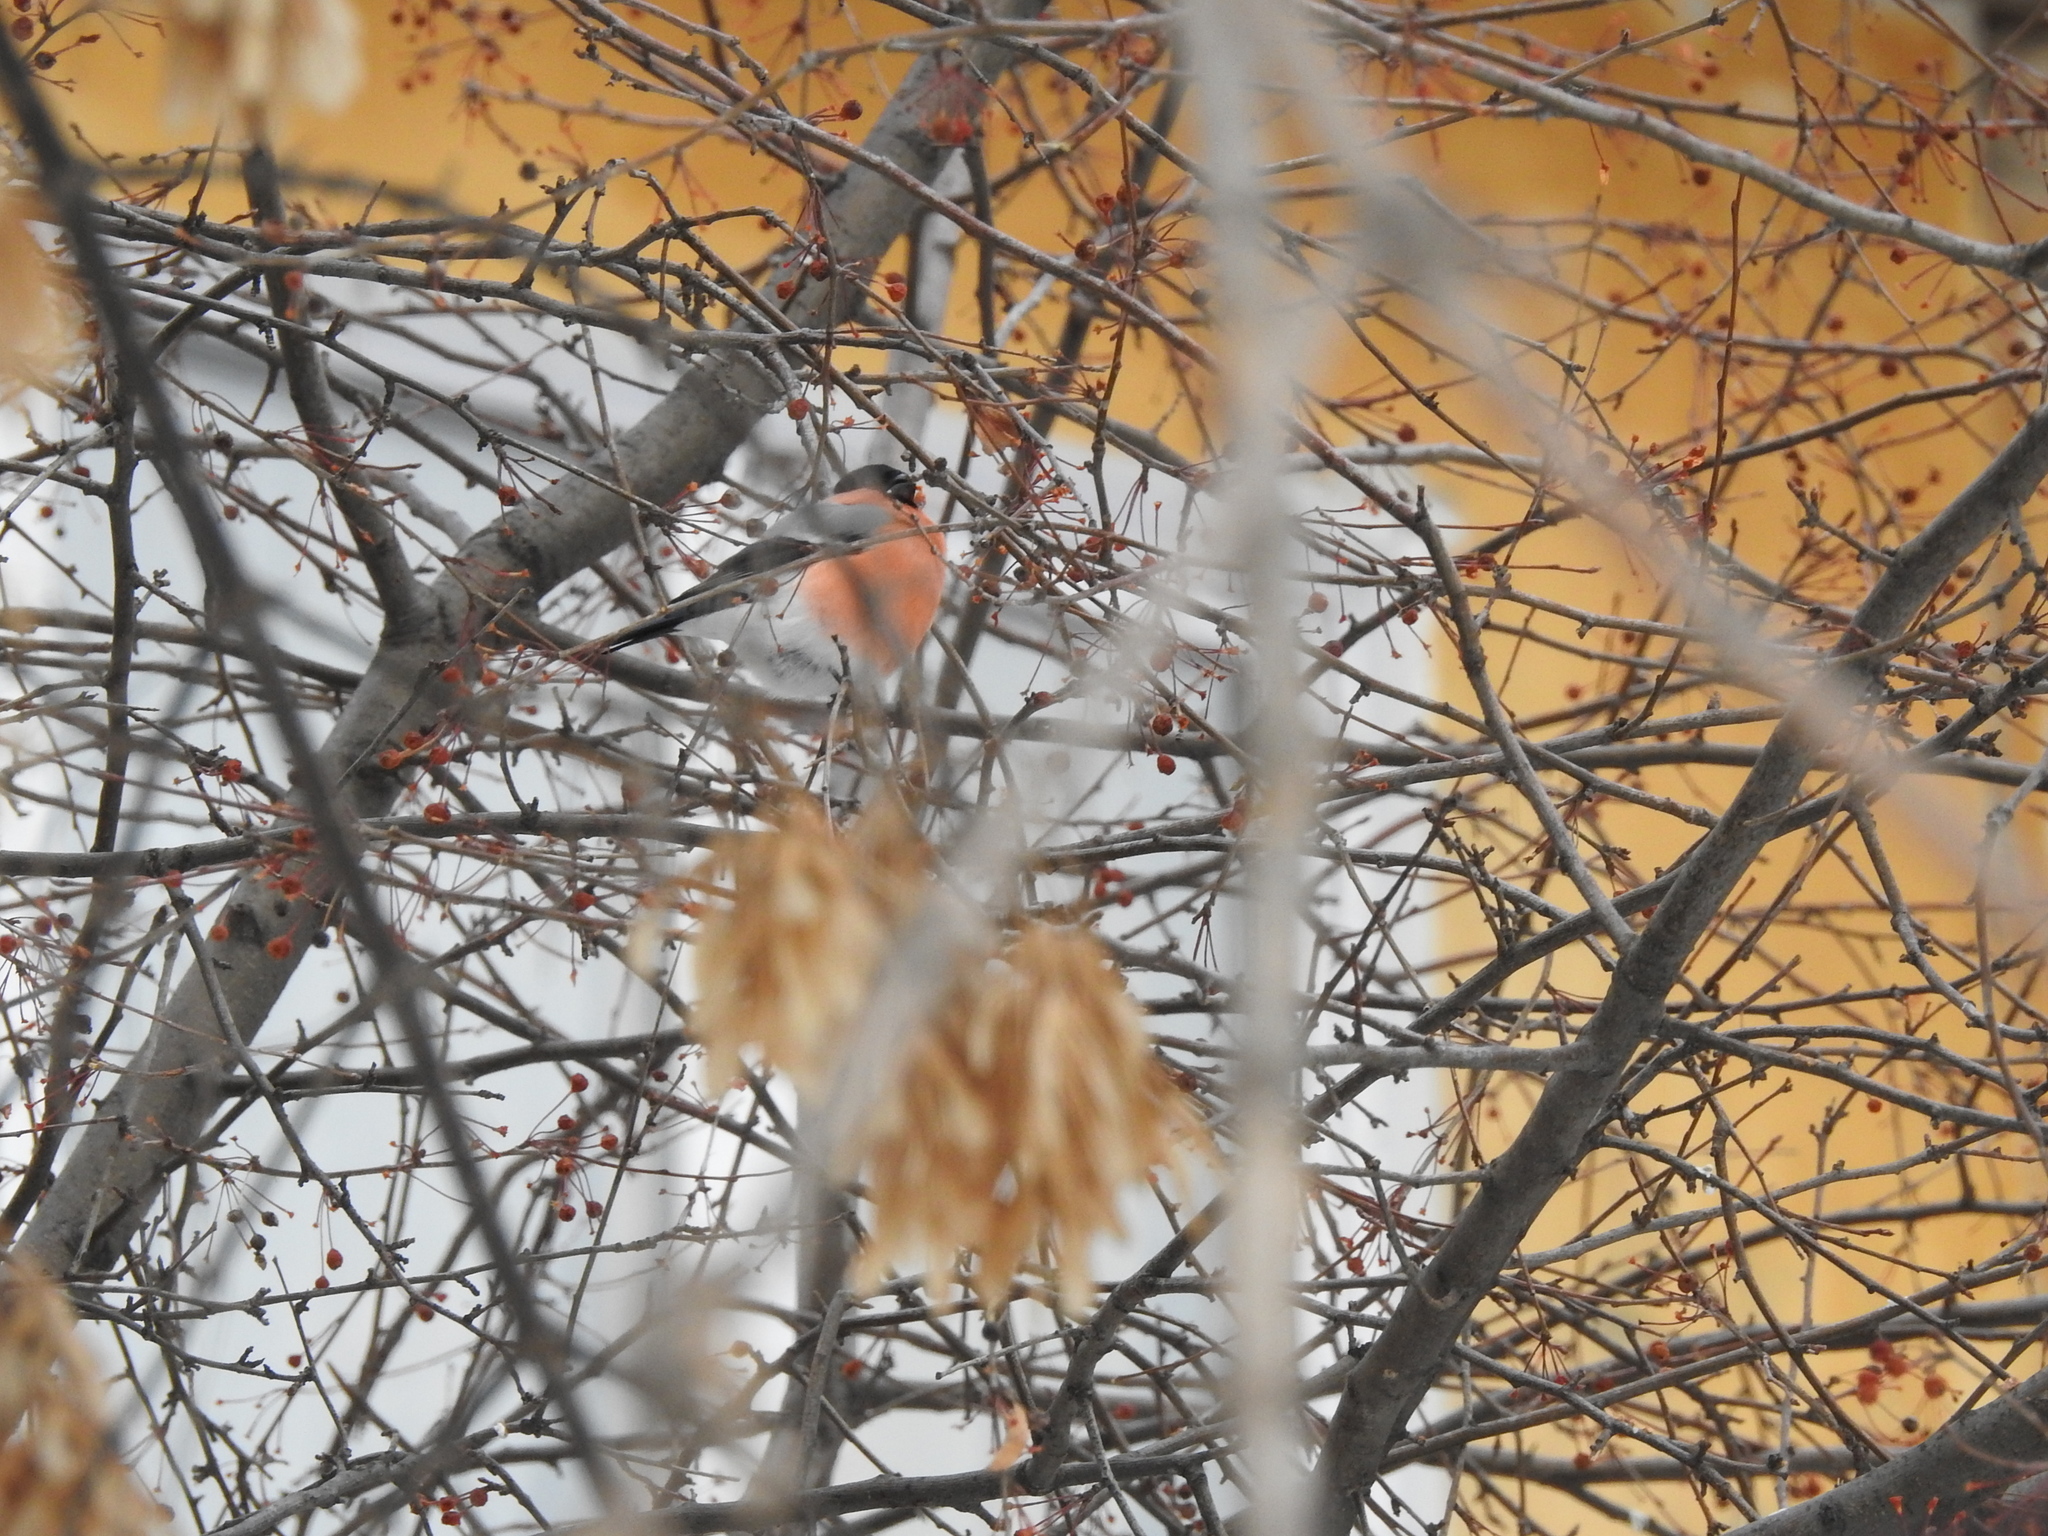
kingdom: Animalia
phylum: Chordata
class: Aves
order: Passeriformes
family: Fringillidae
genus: Pyrrhula
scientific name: Pyrrhula pyrrhula
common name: Eurasian bullfinch
